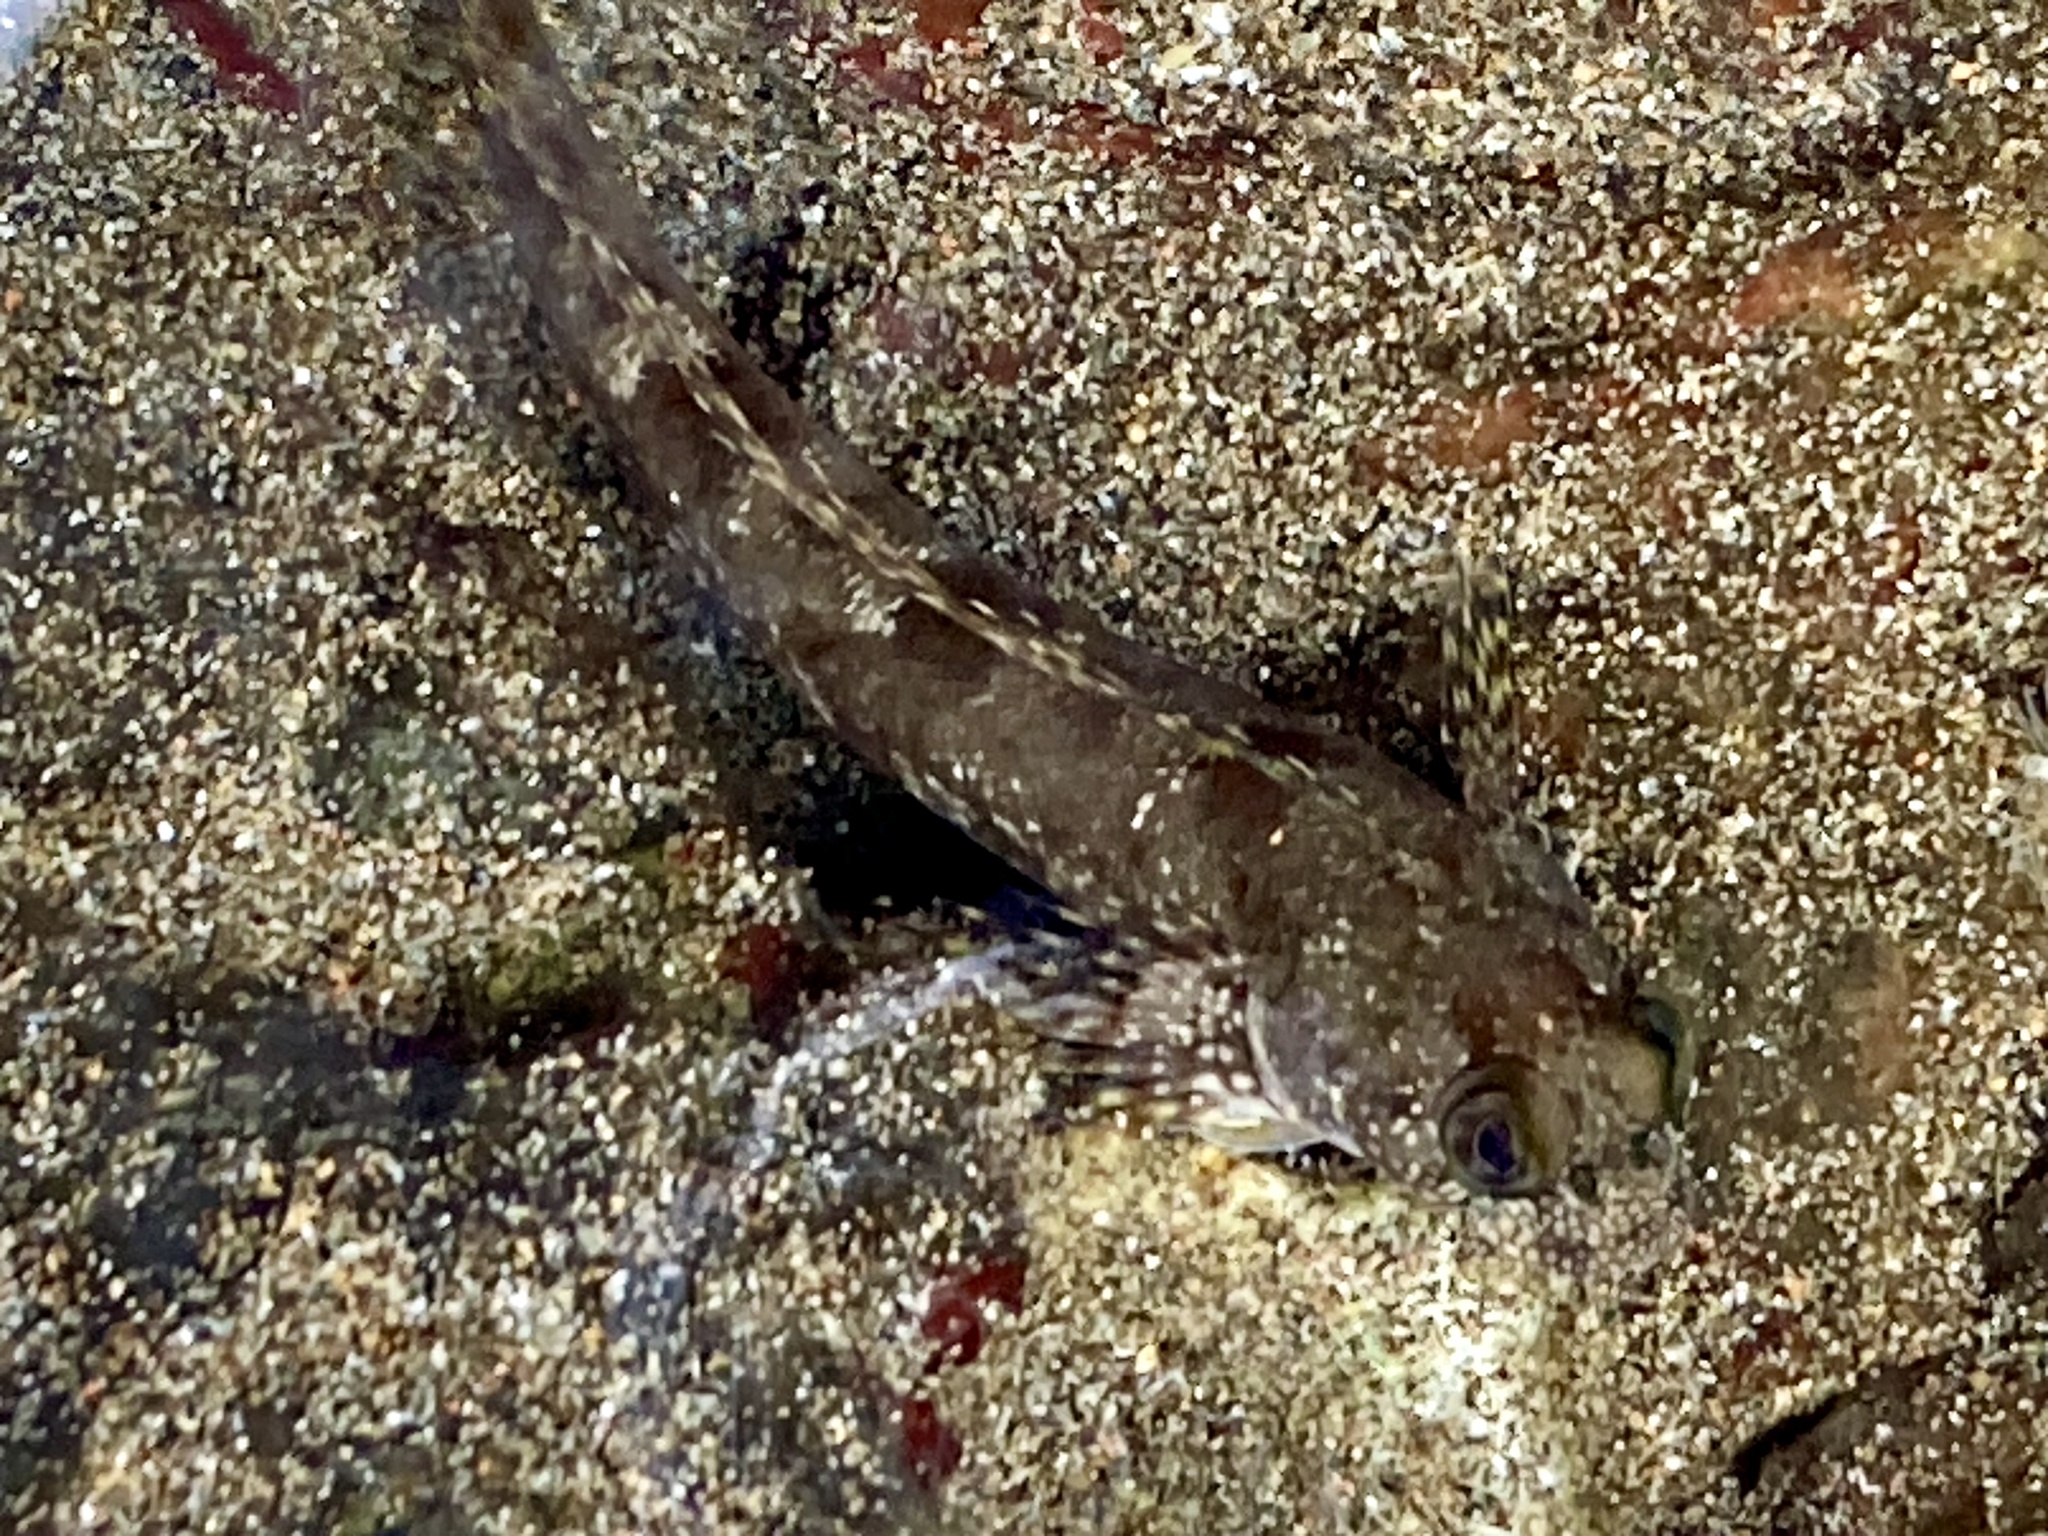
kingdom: Animalia
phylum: Chordata
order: Perciformes
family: Labrisomidae
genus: Dialommus
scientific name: Dialommus macrocephalus
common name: Foureye rockskipper
